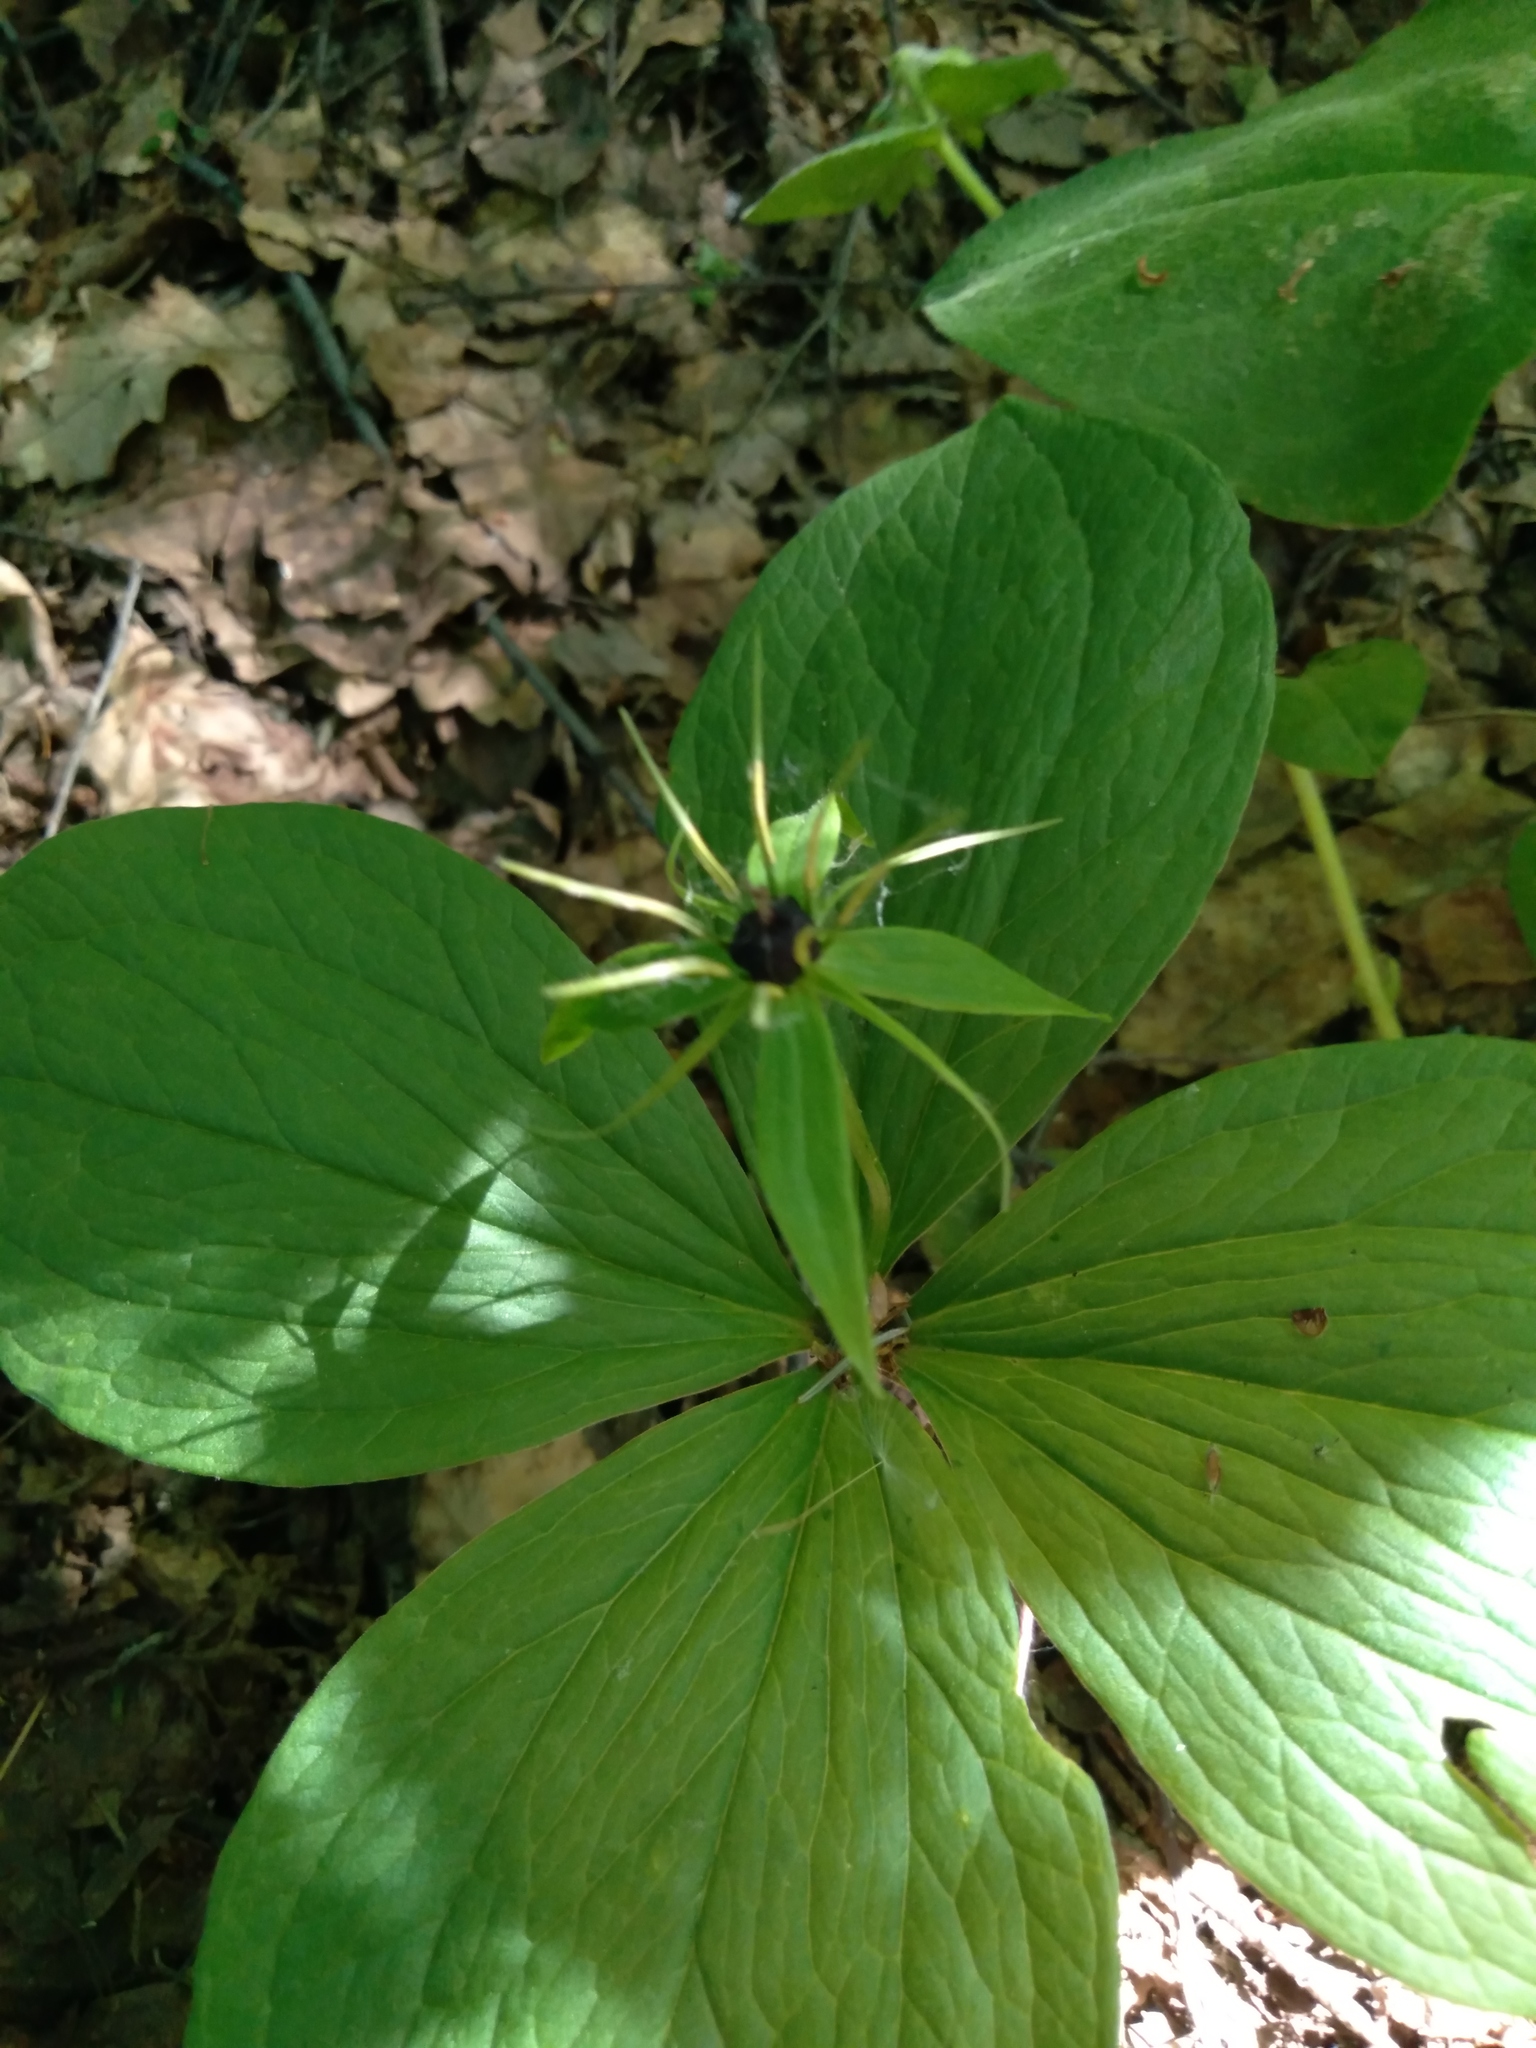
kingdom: Plantae
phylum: Tracheophyta
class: Liliopsida
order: Liliales
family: Melanthiaceae
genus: Paris
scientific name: Paris quadrifolia
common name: Herb-paris
